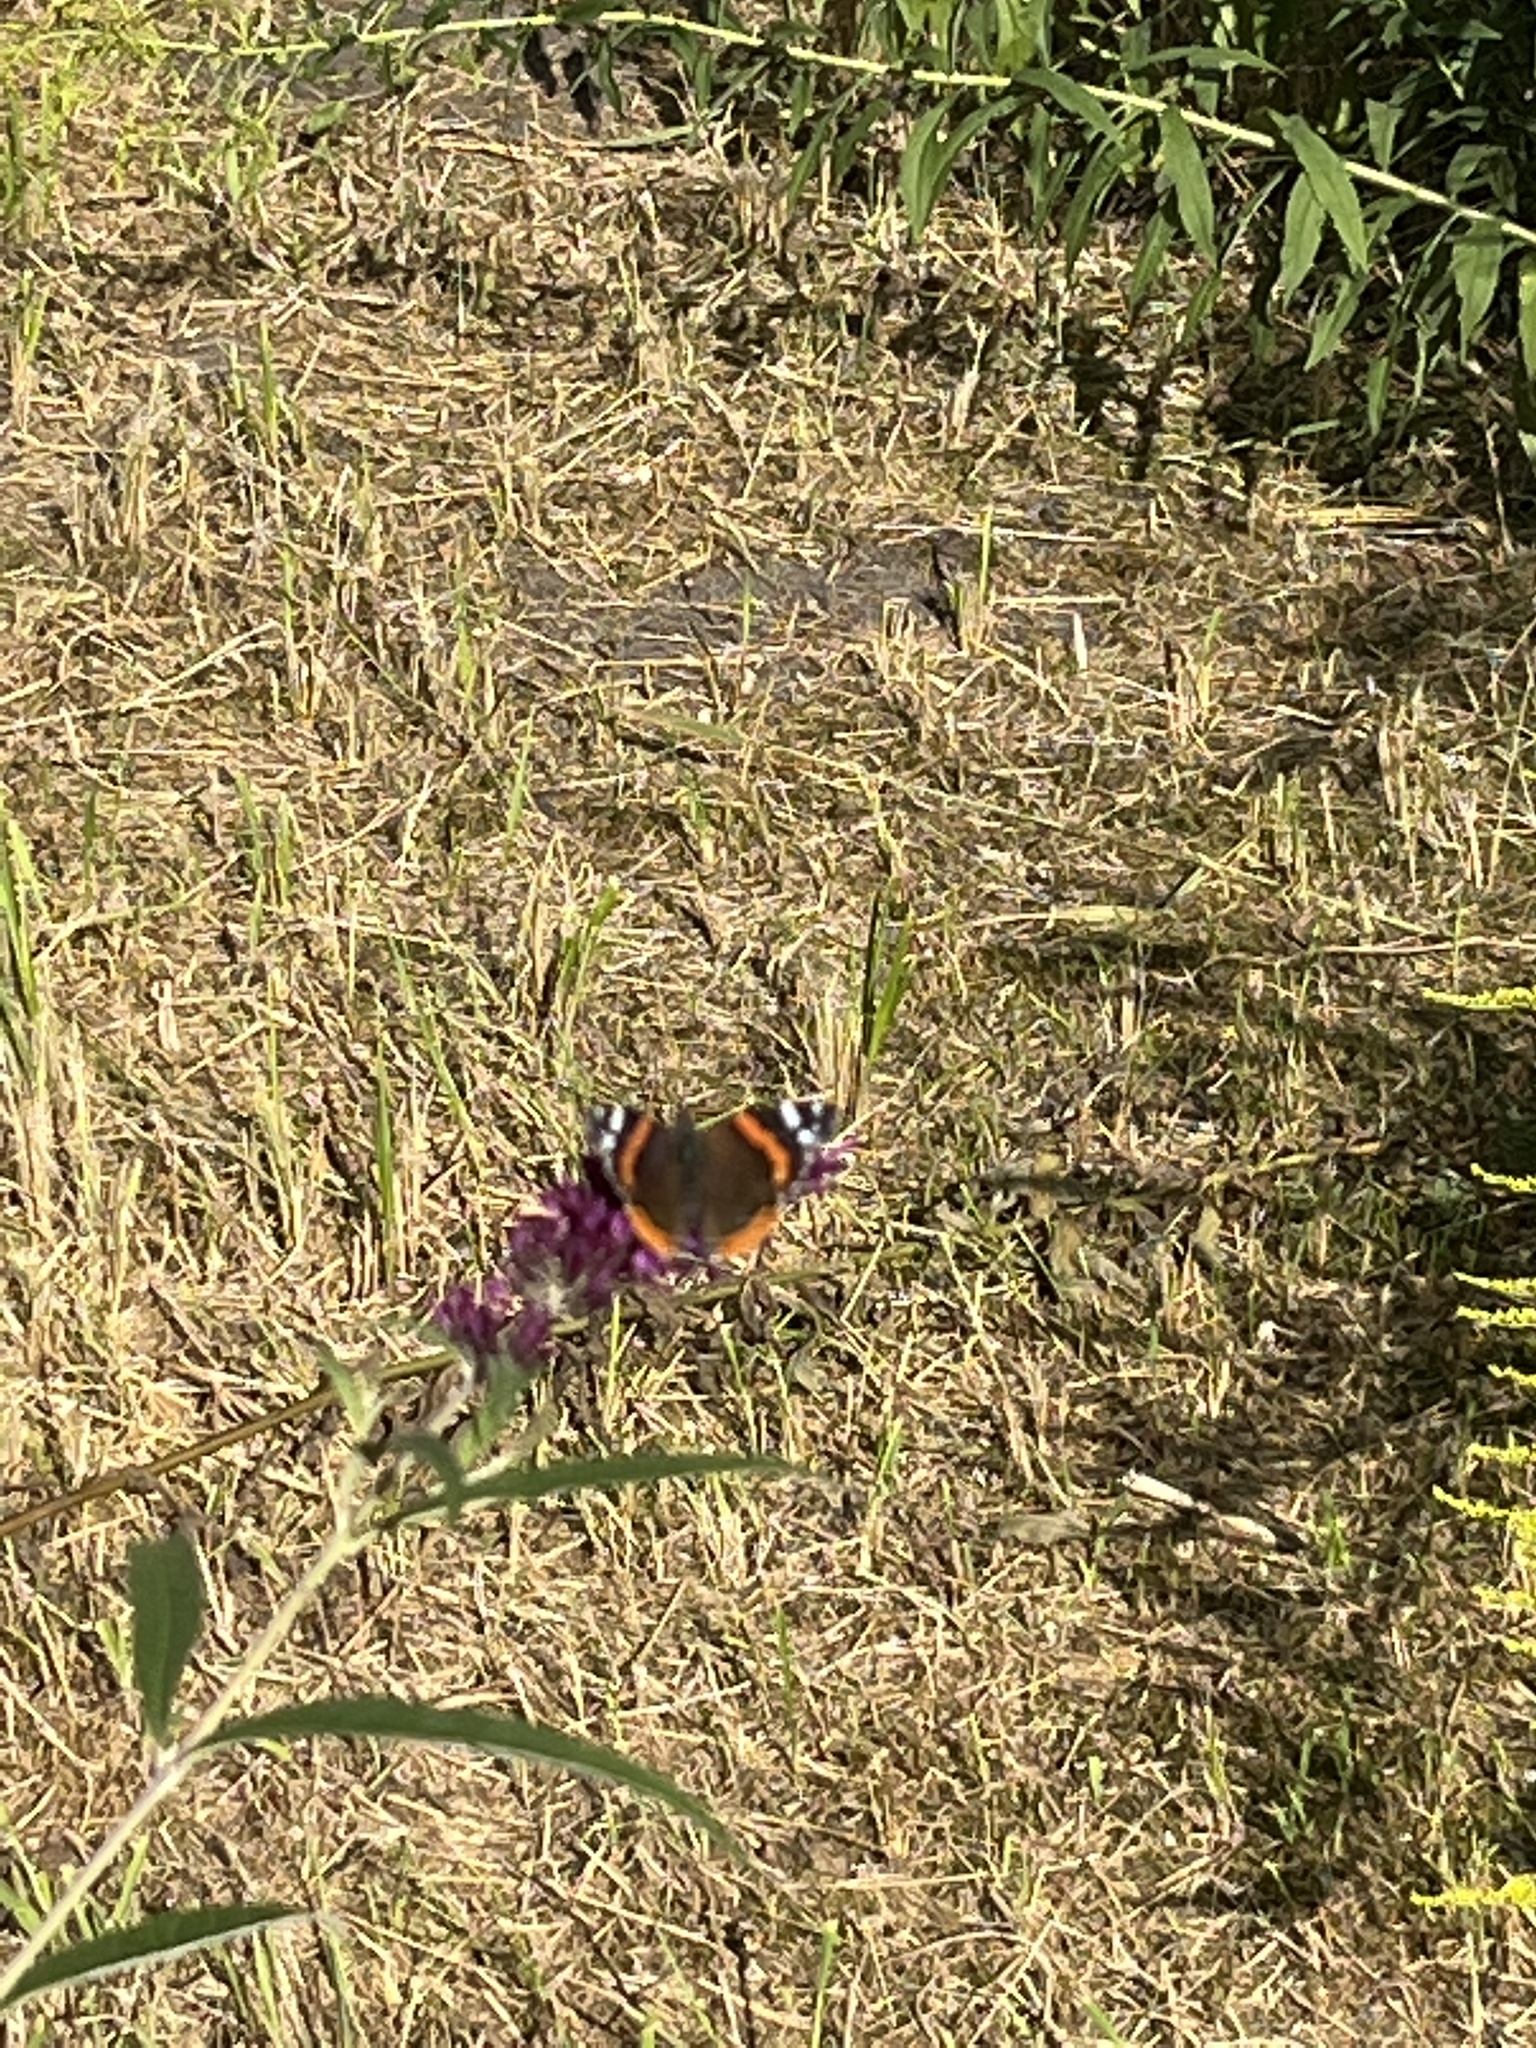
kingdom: Animalia
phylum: Arthropoda
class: Insecta
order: Lepidoptera
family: Nymphalidae
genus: Vanessa
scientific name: Vanessa atalanta
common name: Red admiral
